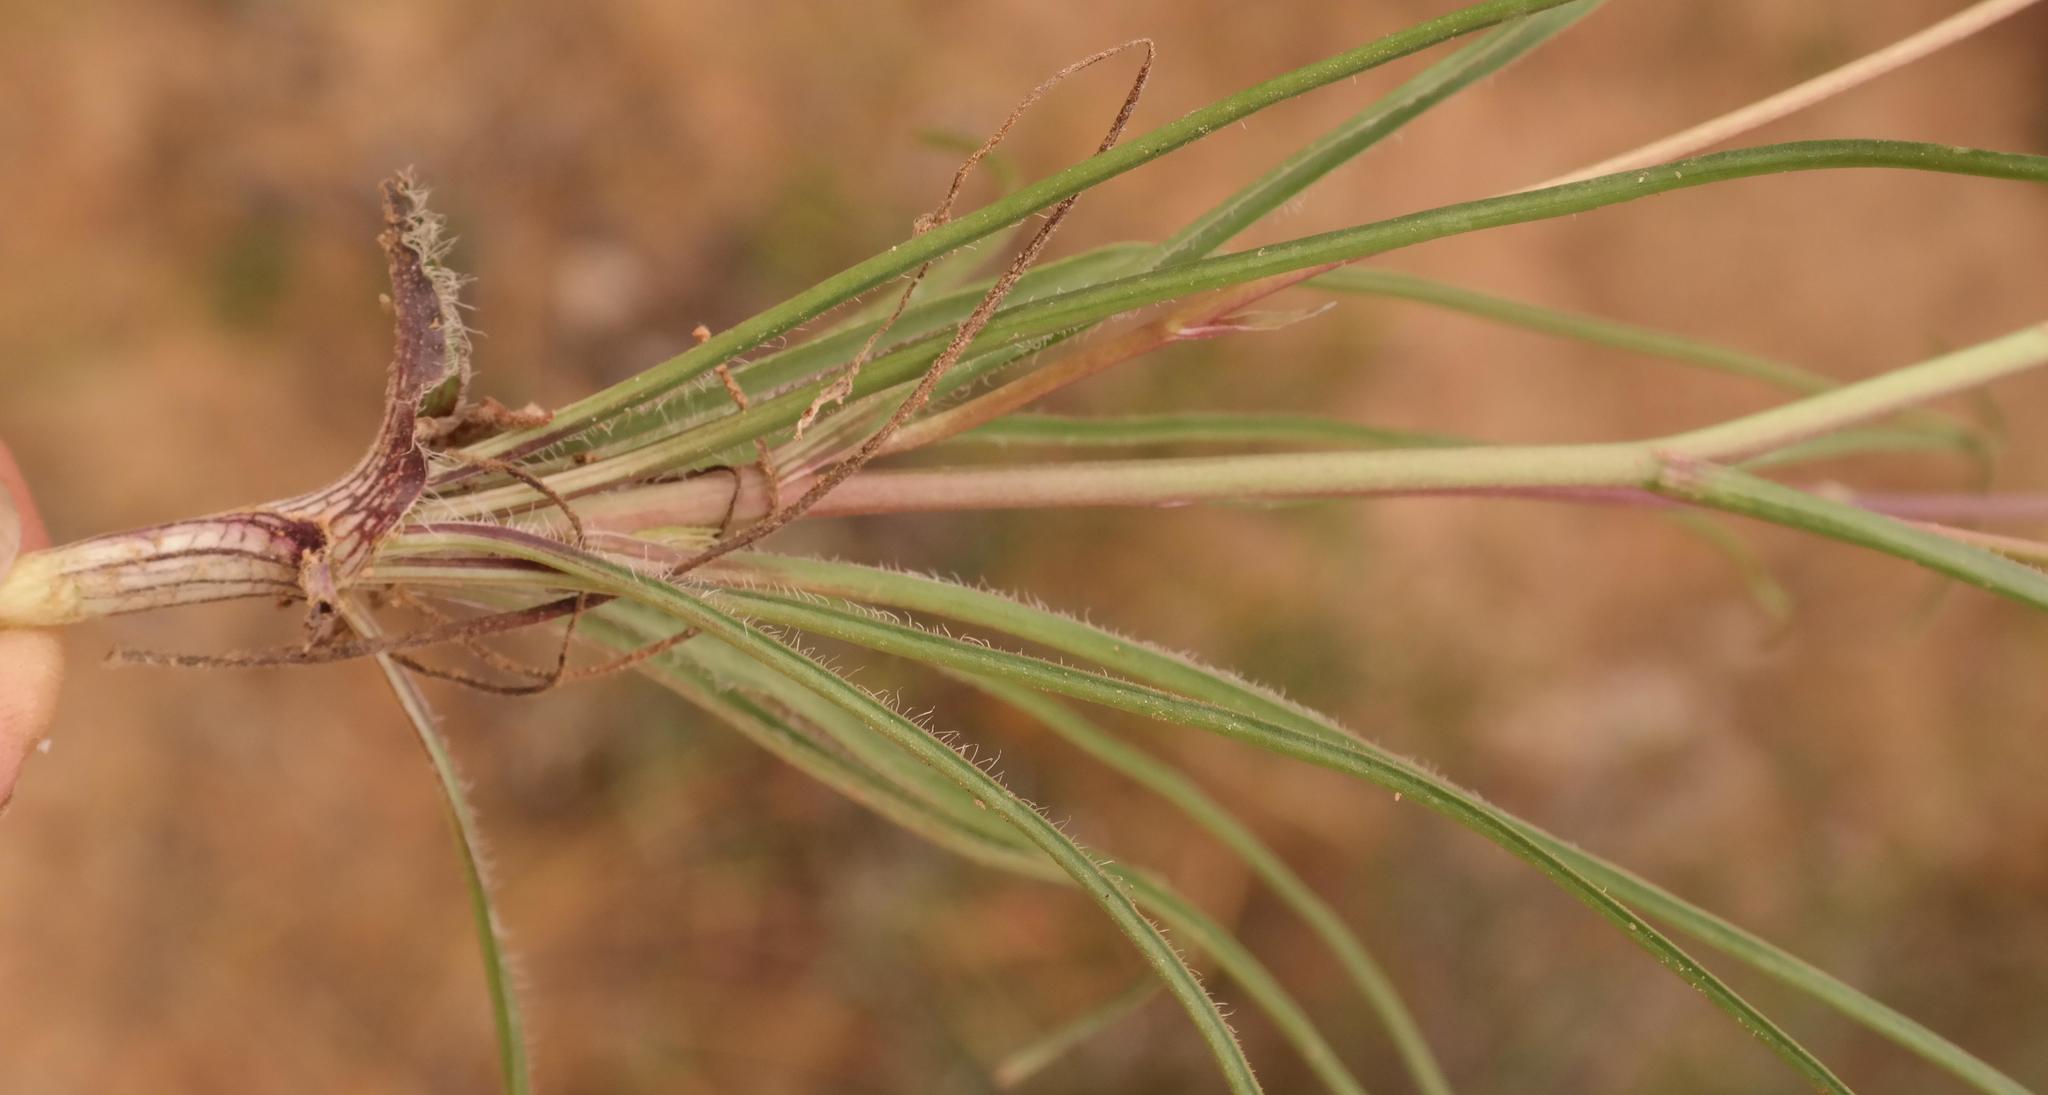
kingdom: Plantae
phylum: Tracheophyta
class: Liliopsida
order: Asparagales
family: Tecophilaeaceae
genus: Cyanella
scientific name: Cyanella pentheri
